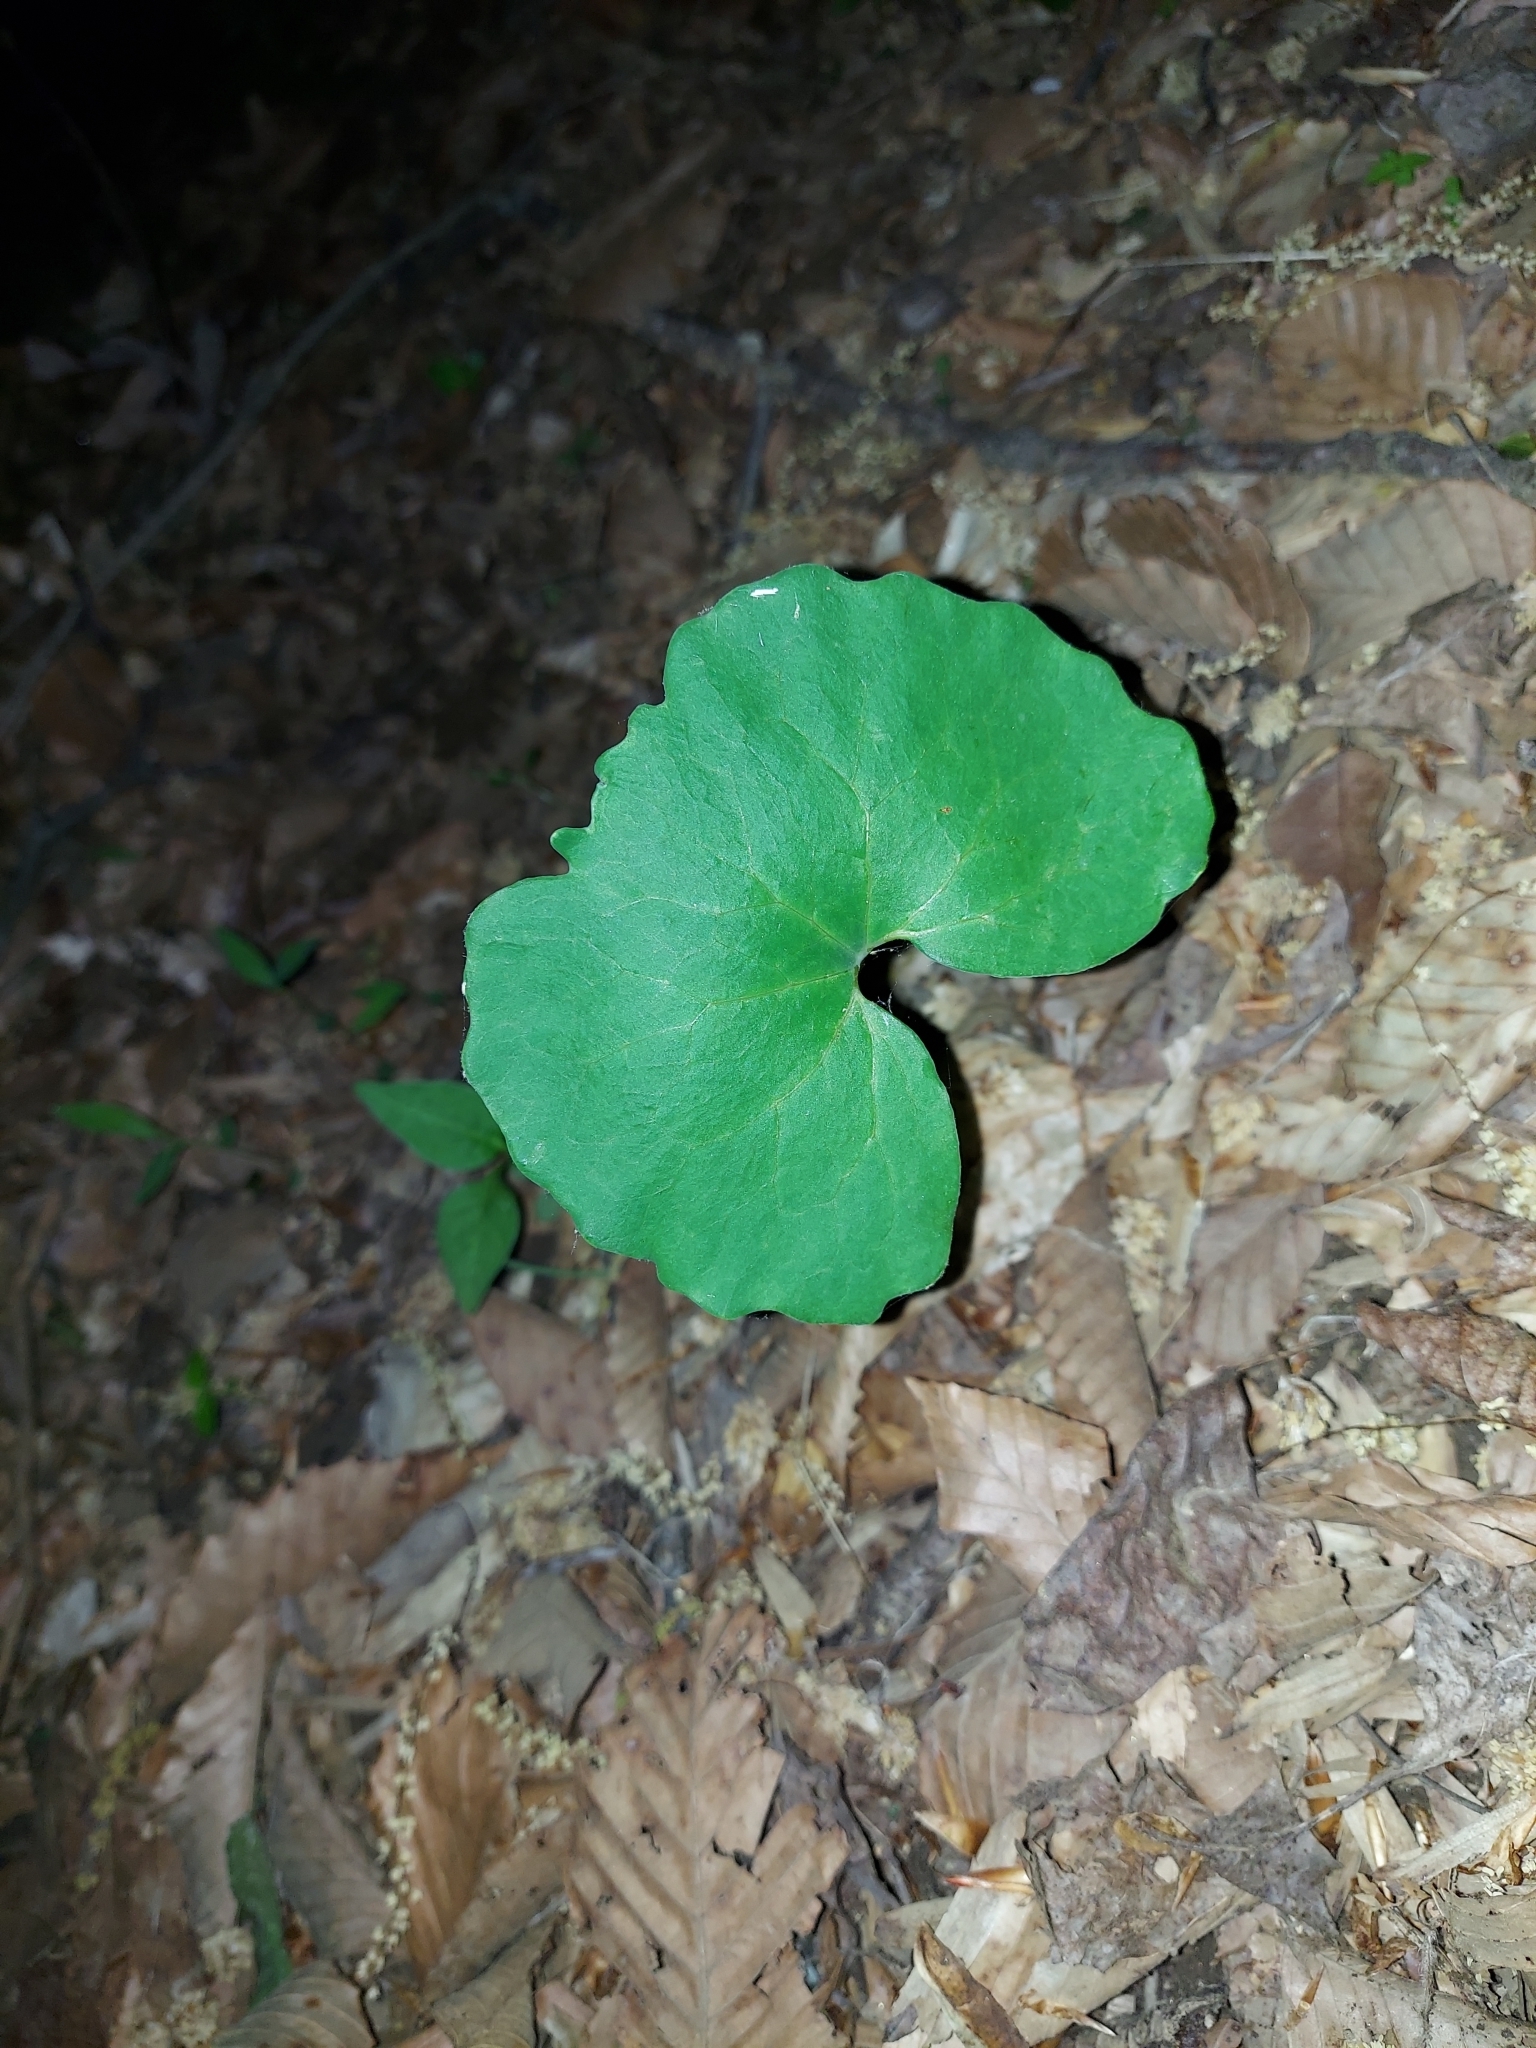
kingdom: Plantae
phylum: Tracheophyta
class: Magnoliopsida
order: Ranunculales
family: Papaveraceae
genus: Sanguinaria
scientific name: Sanguinaria canadensis
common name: Bloodroot
